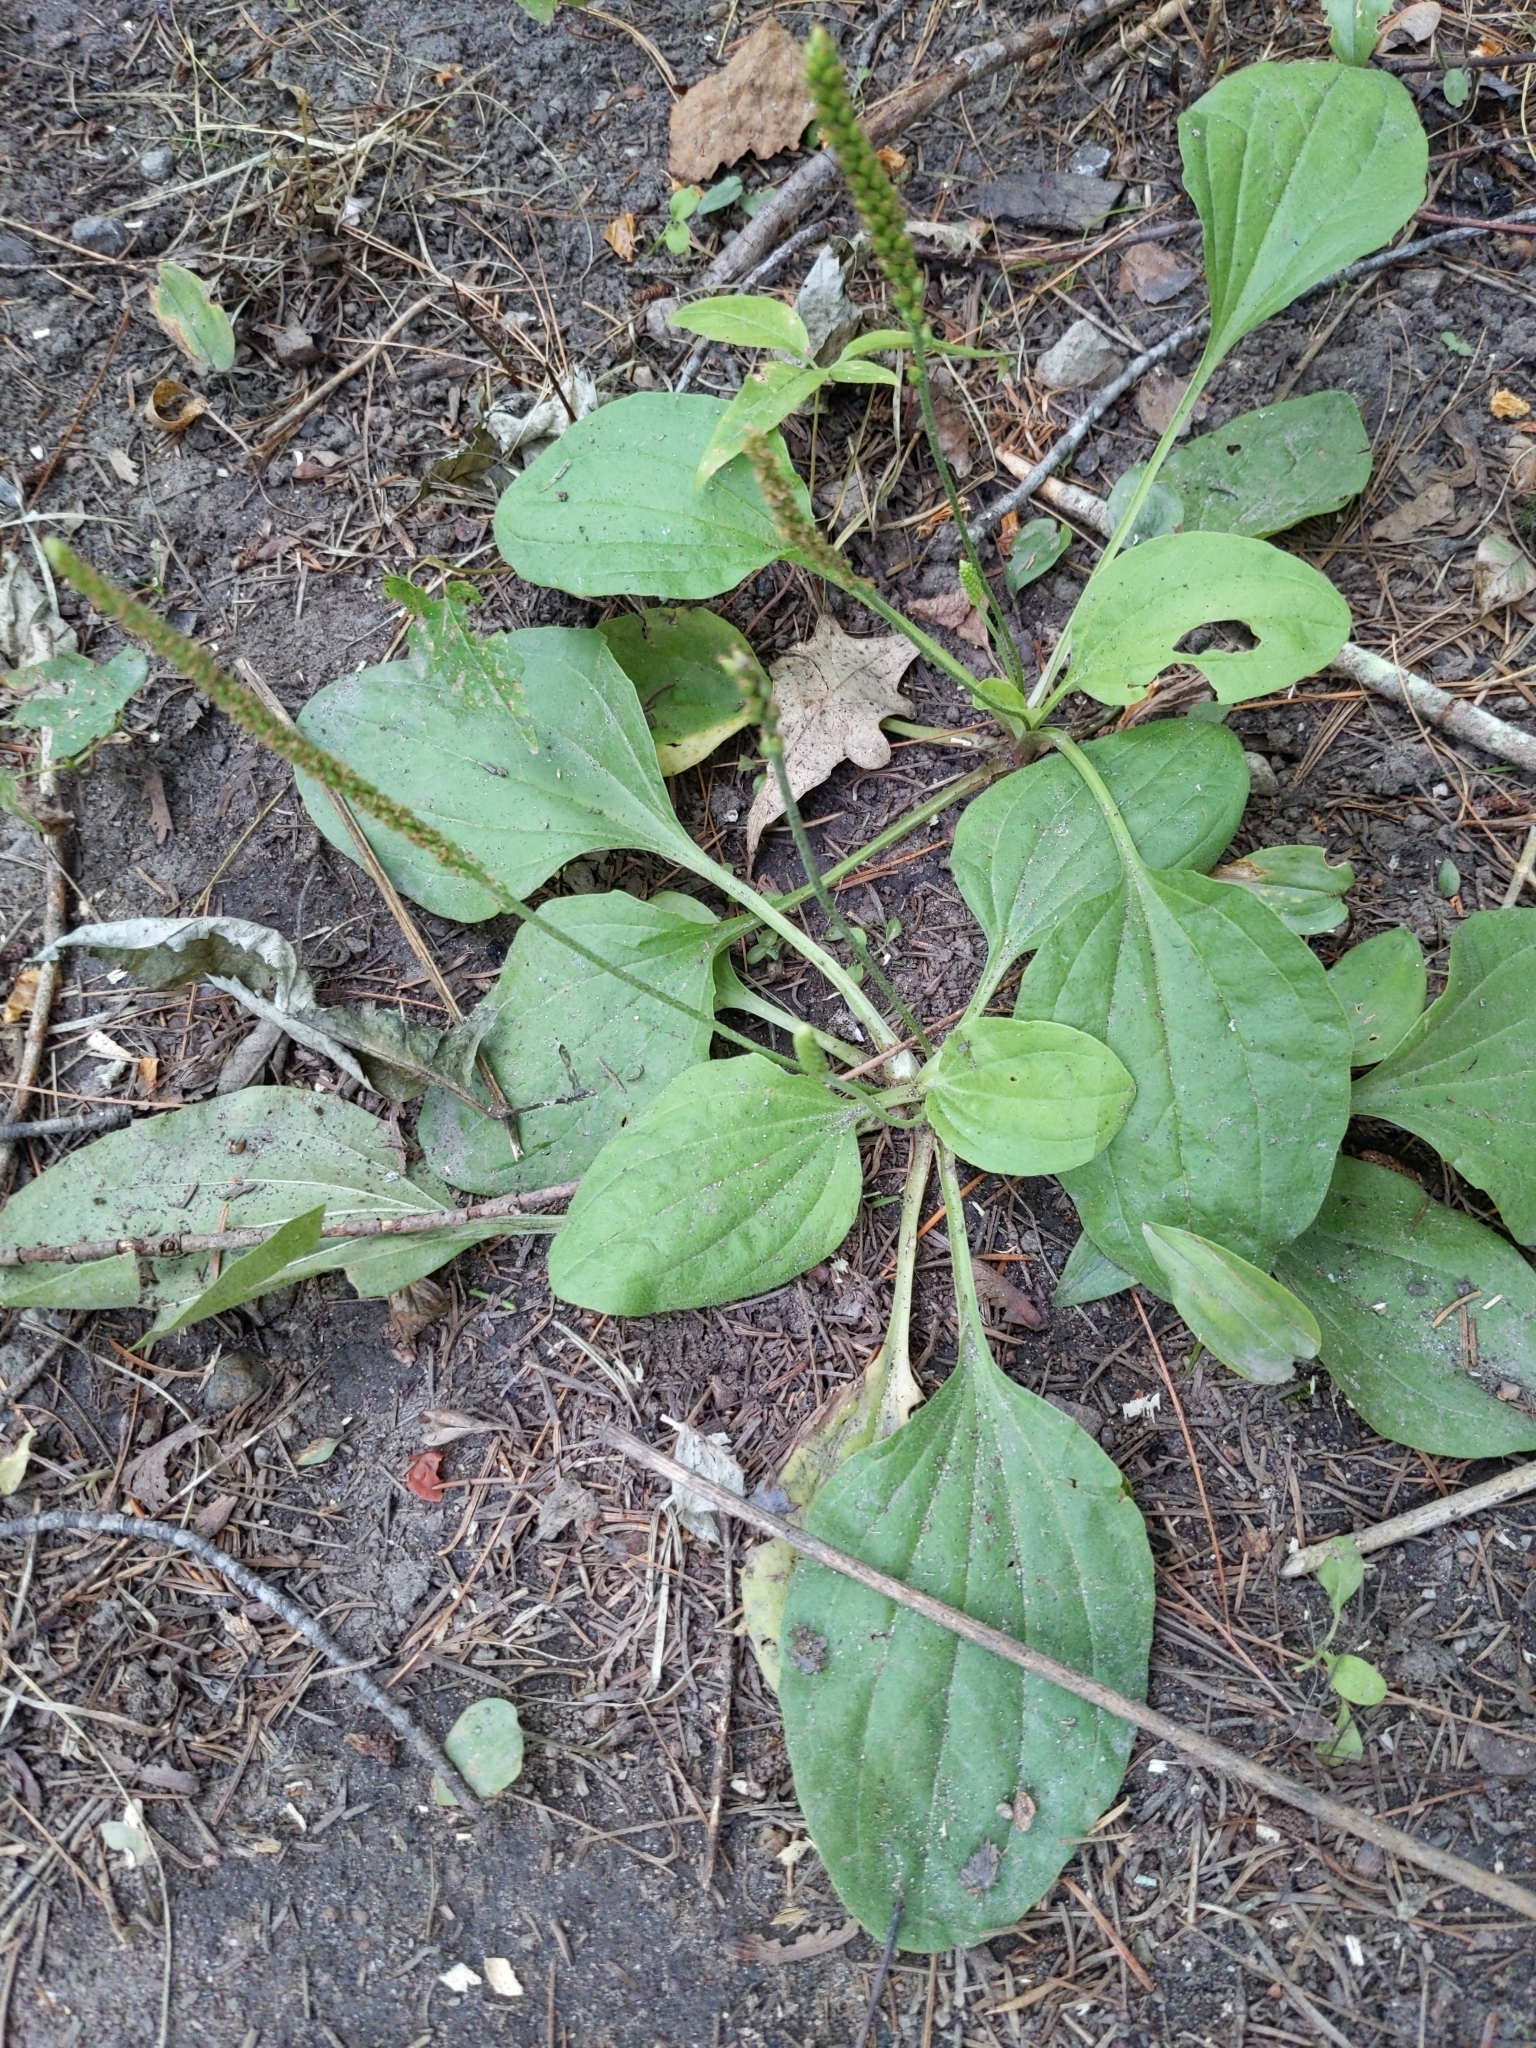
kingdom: Plantae
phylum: Tracheophyta
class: Magnoliopsida
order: Lamiales
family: Plantaginaceae
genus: Plantago
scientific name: Plantago major
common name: Common plantain
